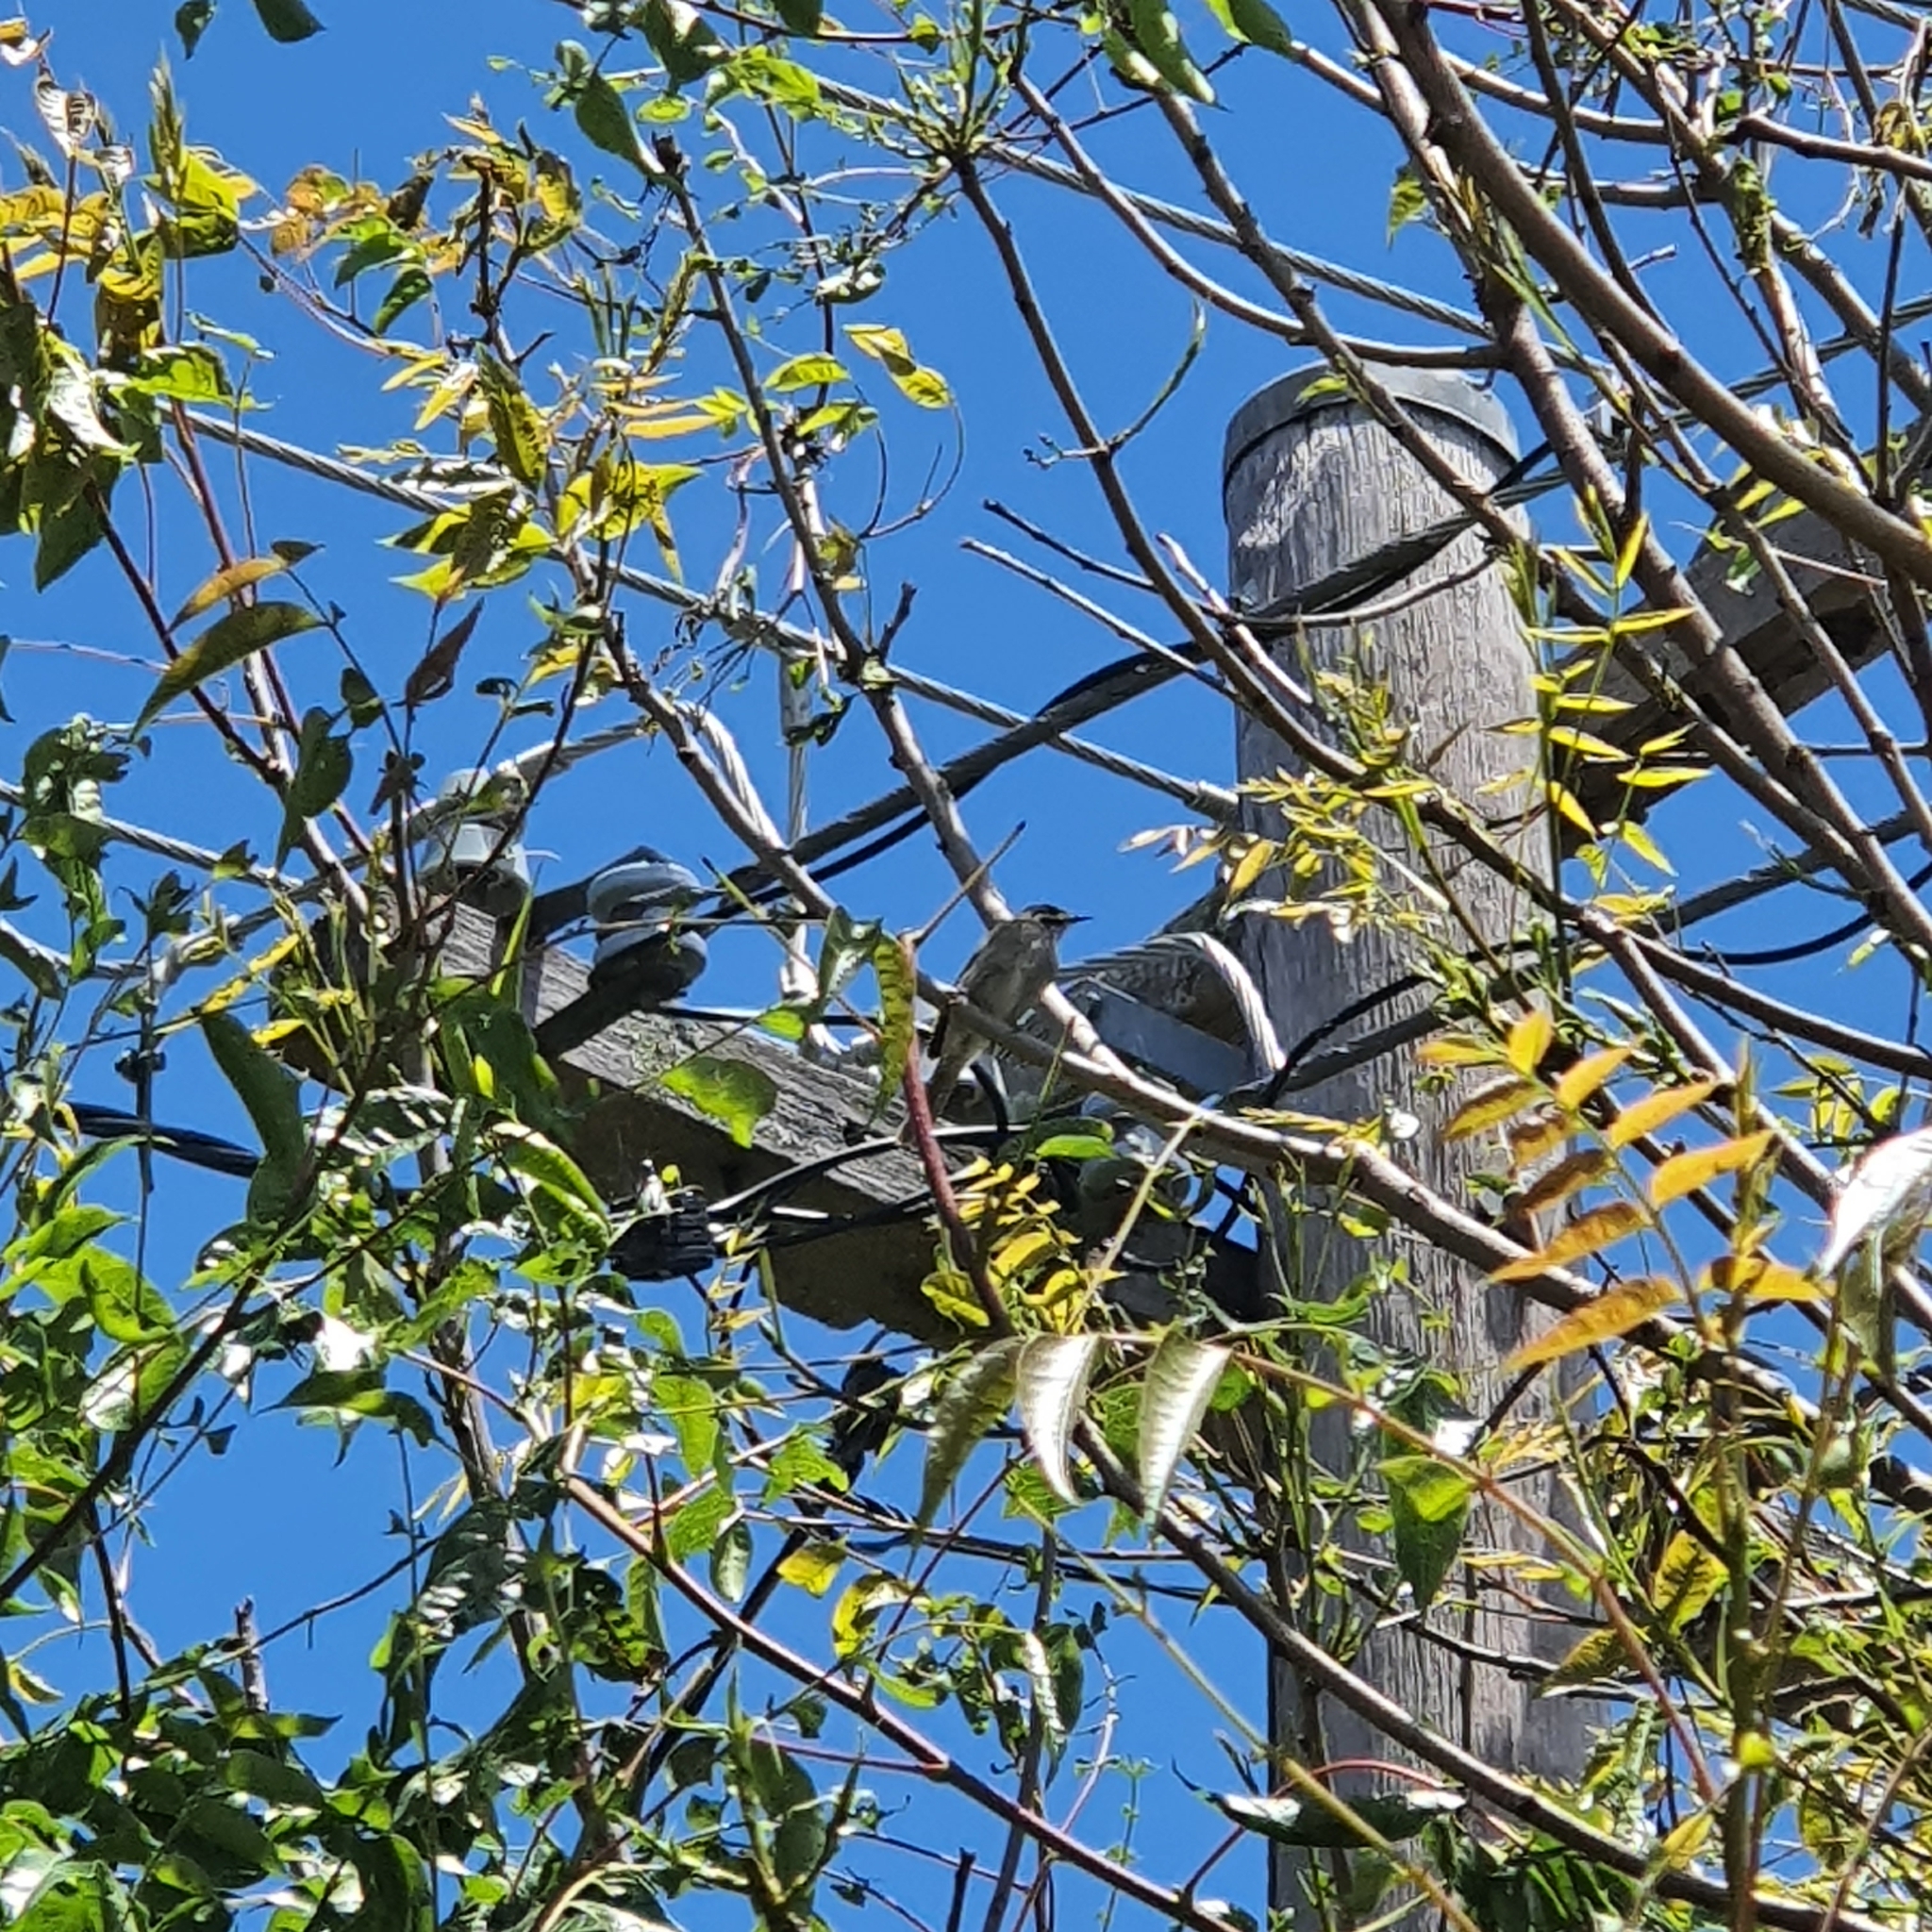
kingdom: Animalia
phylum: Chordata
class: Aves
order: Passeriformes
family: Meliphagidae
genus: Caligavis
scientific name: Caligavis chrysops
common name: Yellow-faced honeyeater
